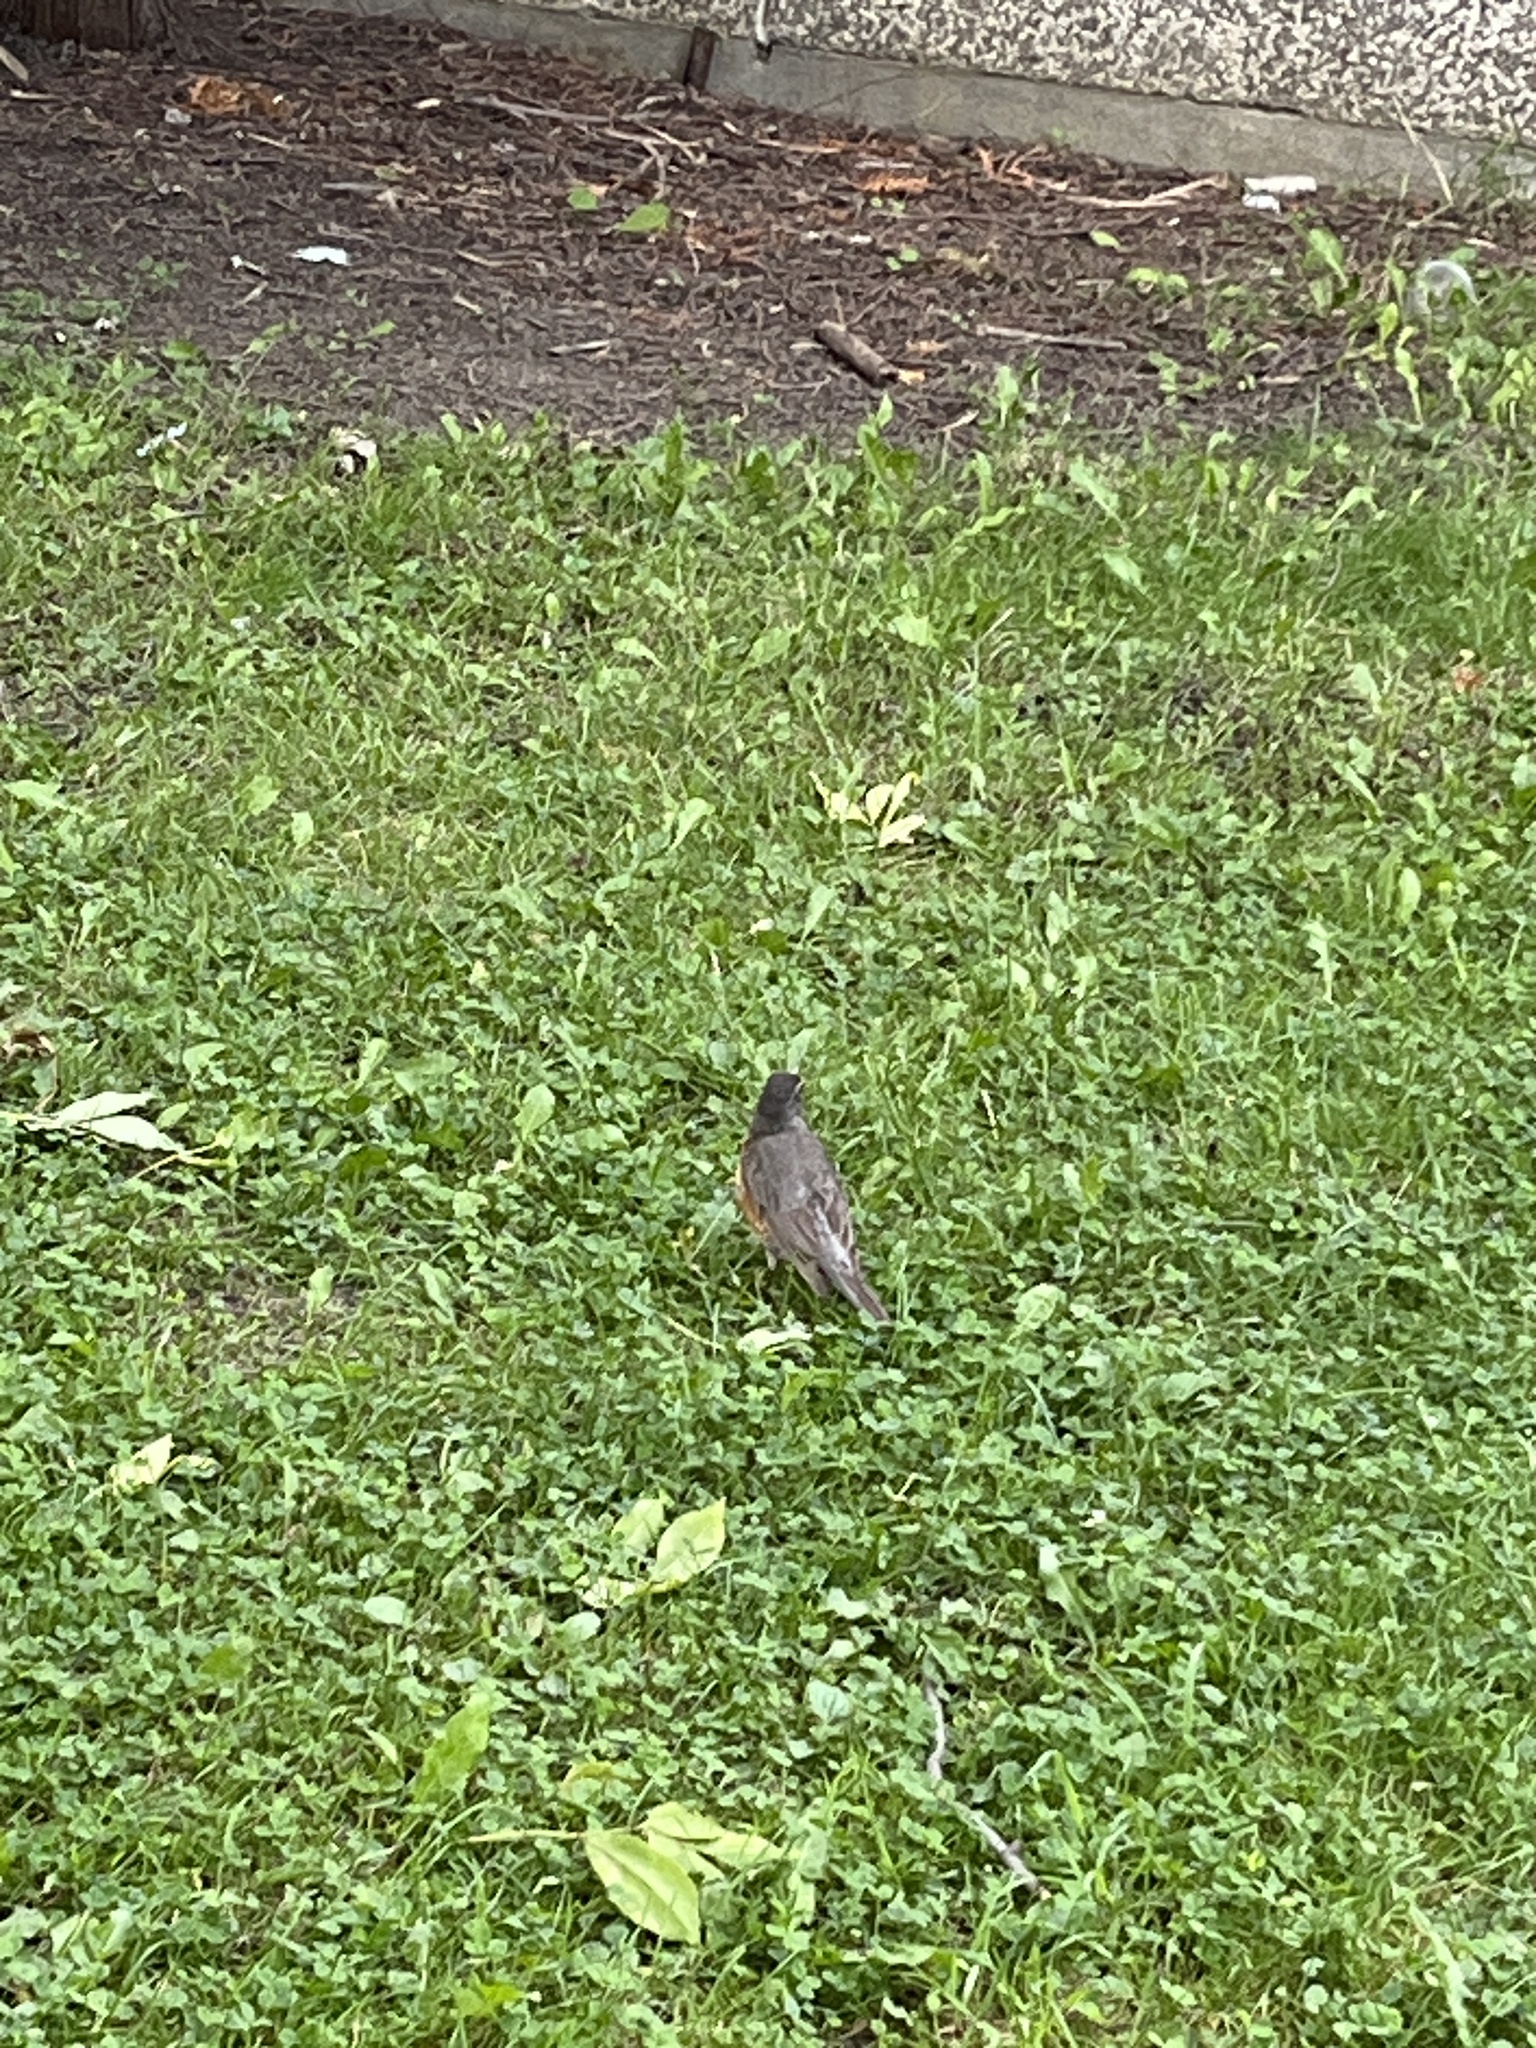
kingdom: Animalia
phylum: Chordata
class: Aves
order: Passeriformes
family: Turdidae
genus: Turdus
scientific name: Turdus migratorius
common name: American robin
